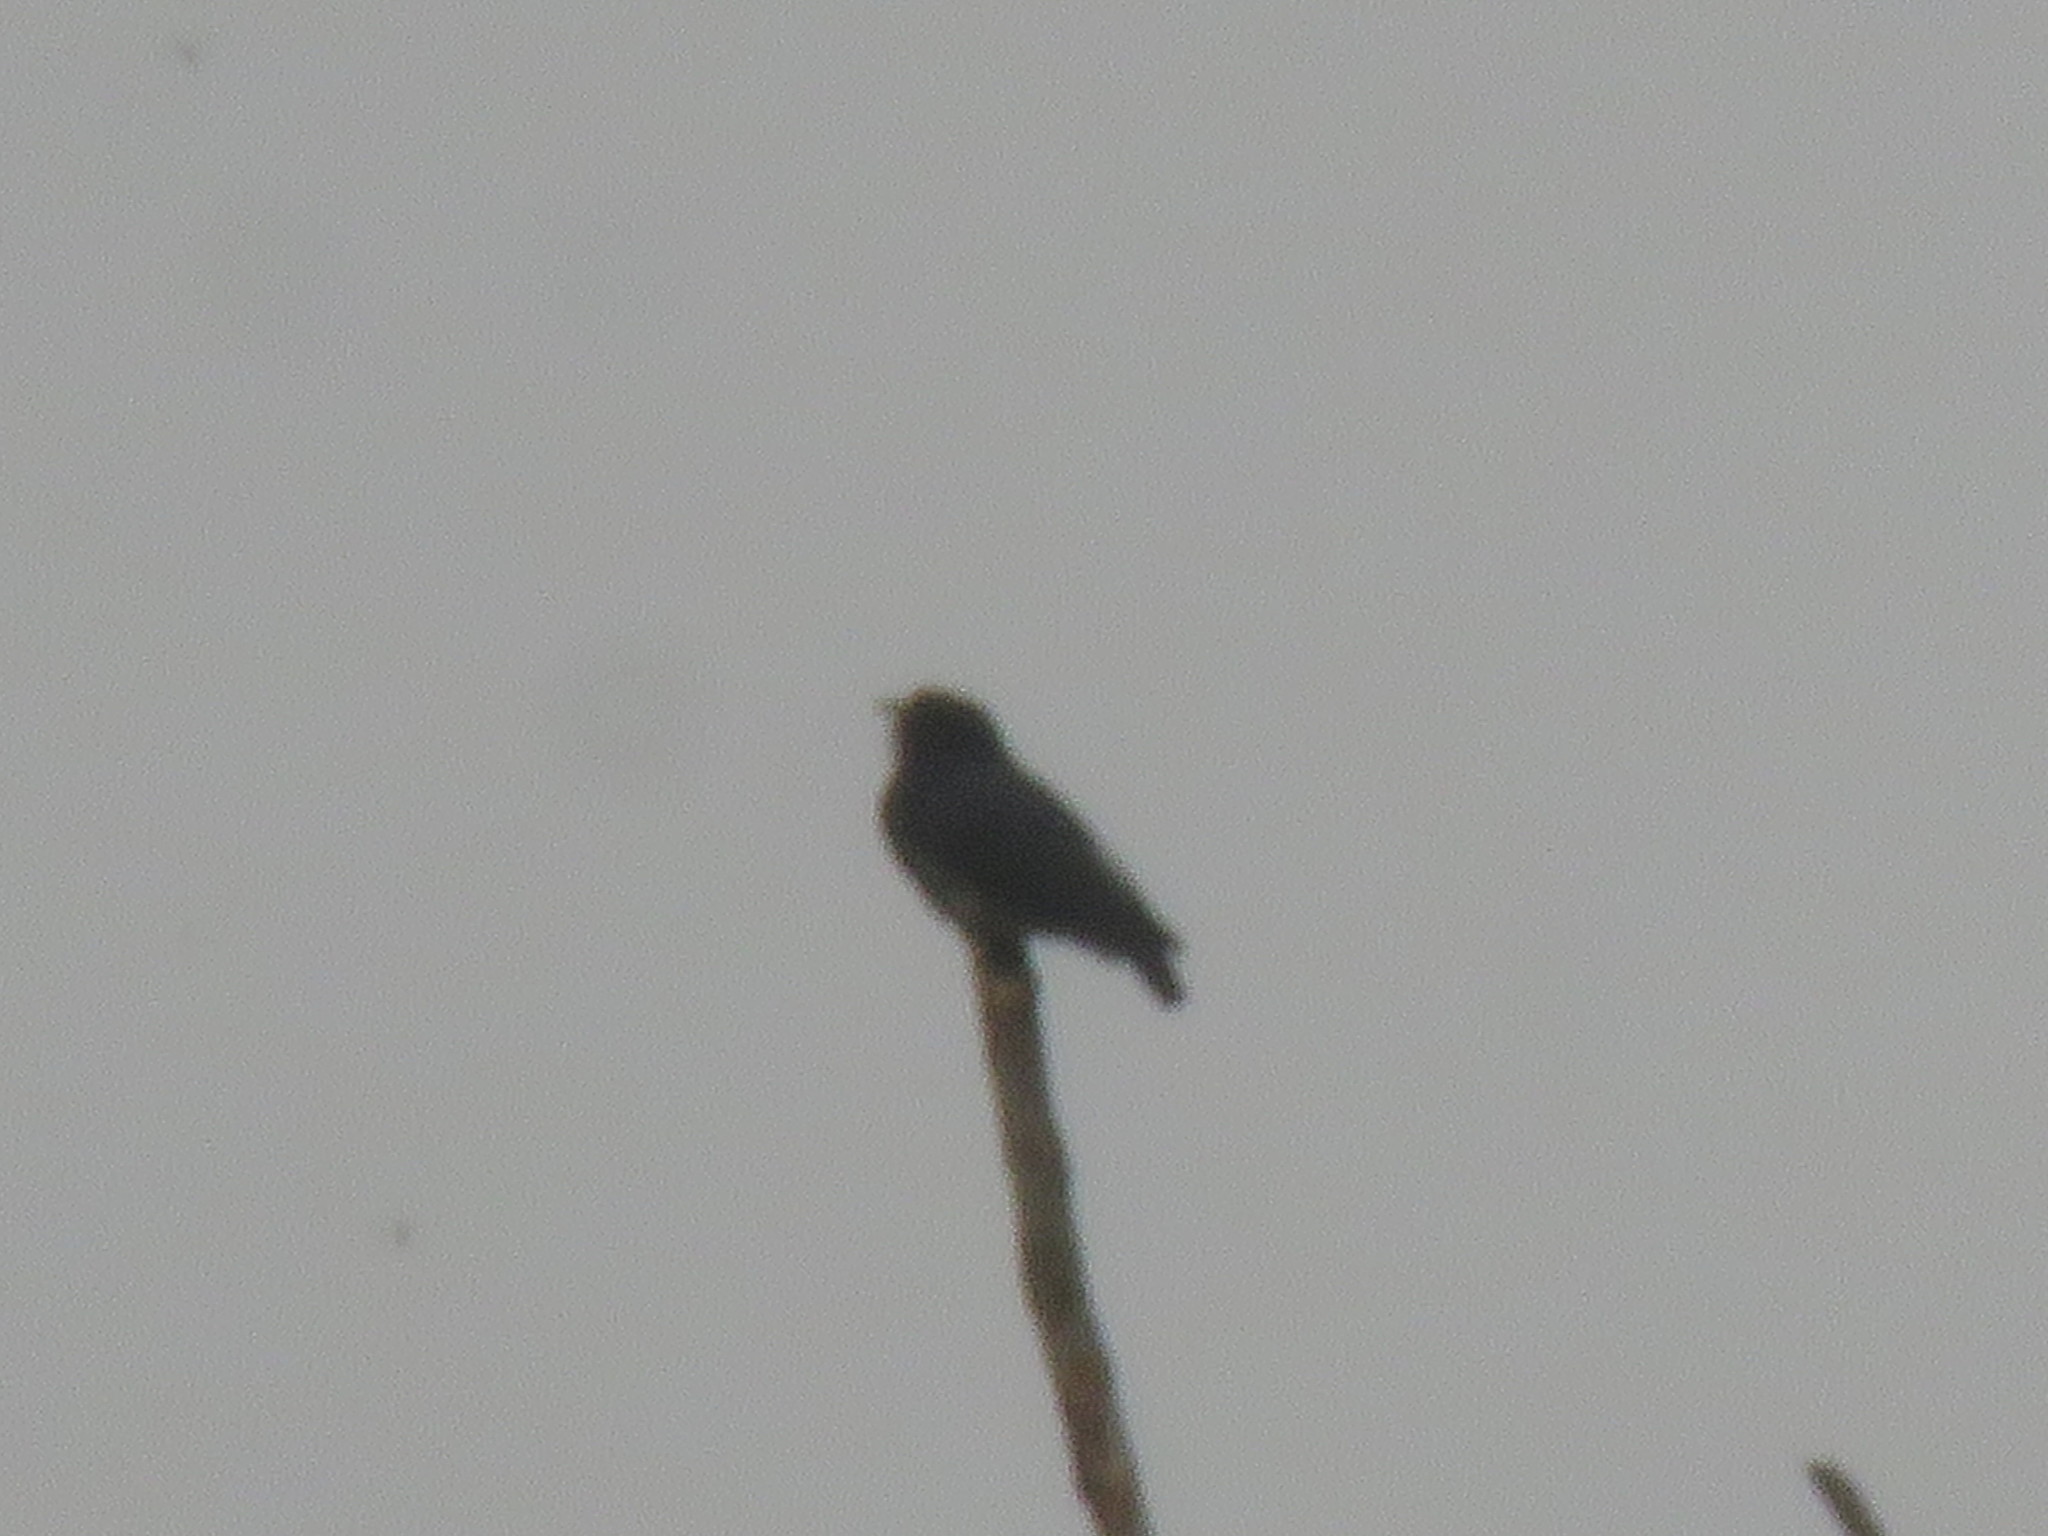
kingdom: Animalia
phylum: Chordata
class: Aves
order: Piciformes
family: Bucconidae
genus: Chelidoptera
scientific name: Chelidoptera tenebrosa
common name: Swallow-winged puffbird
